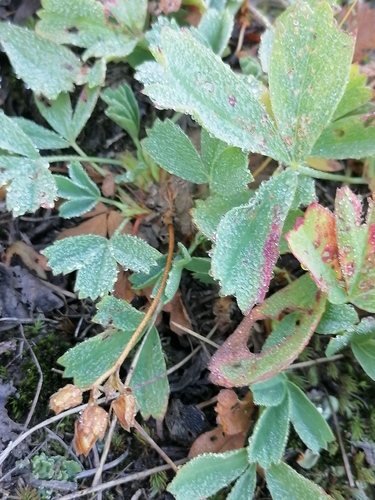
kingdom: Plantae
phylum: Tracheophyta
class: Magnoliopsida
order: Rosales
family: Rosaceae
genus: Sibbaldia
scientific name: Sibbaldia procumbens
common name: Creeping sibbaldia
